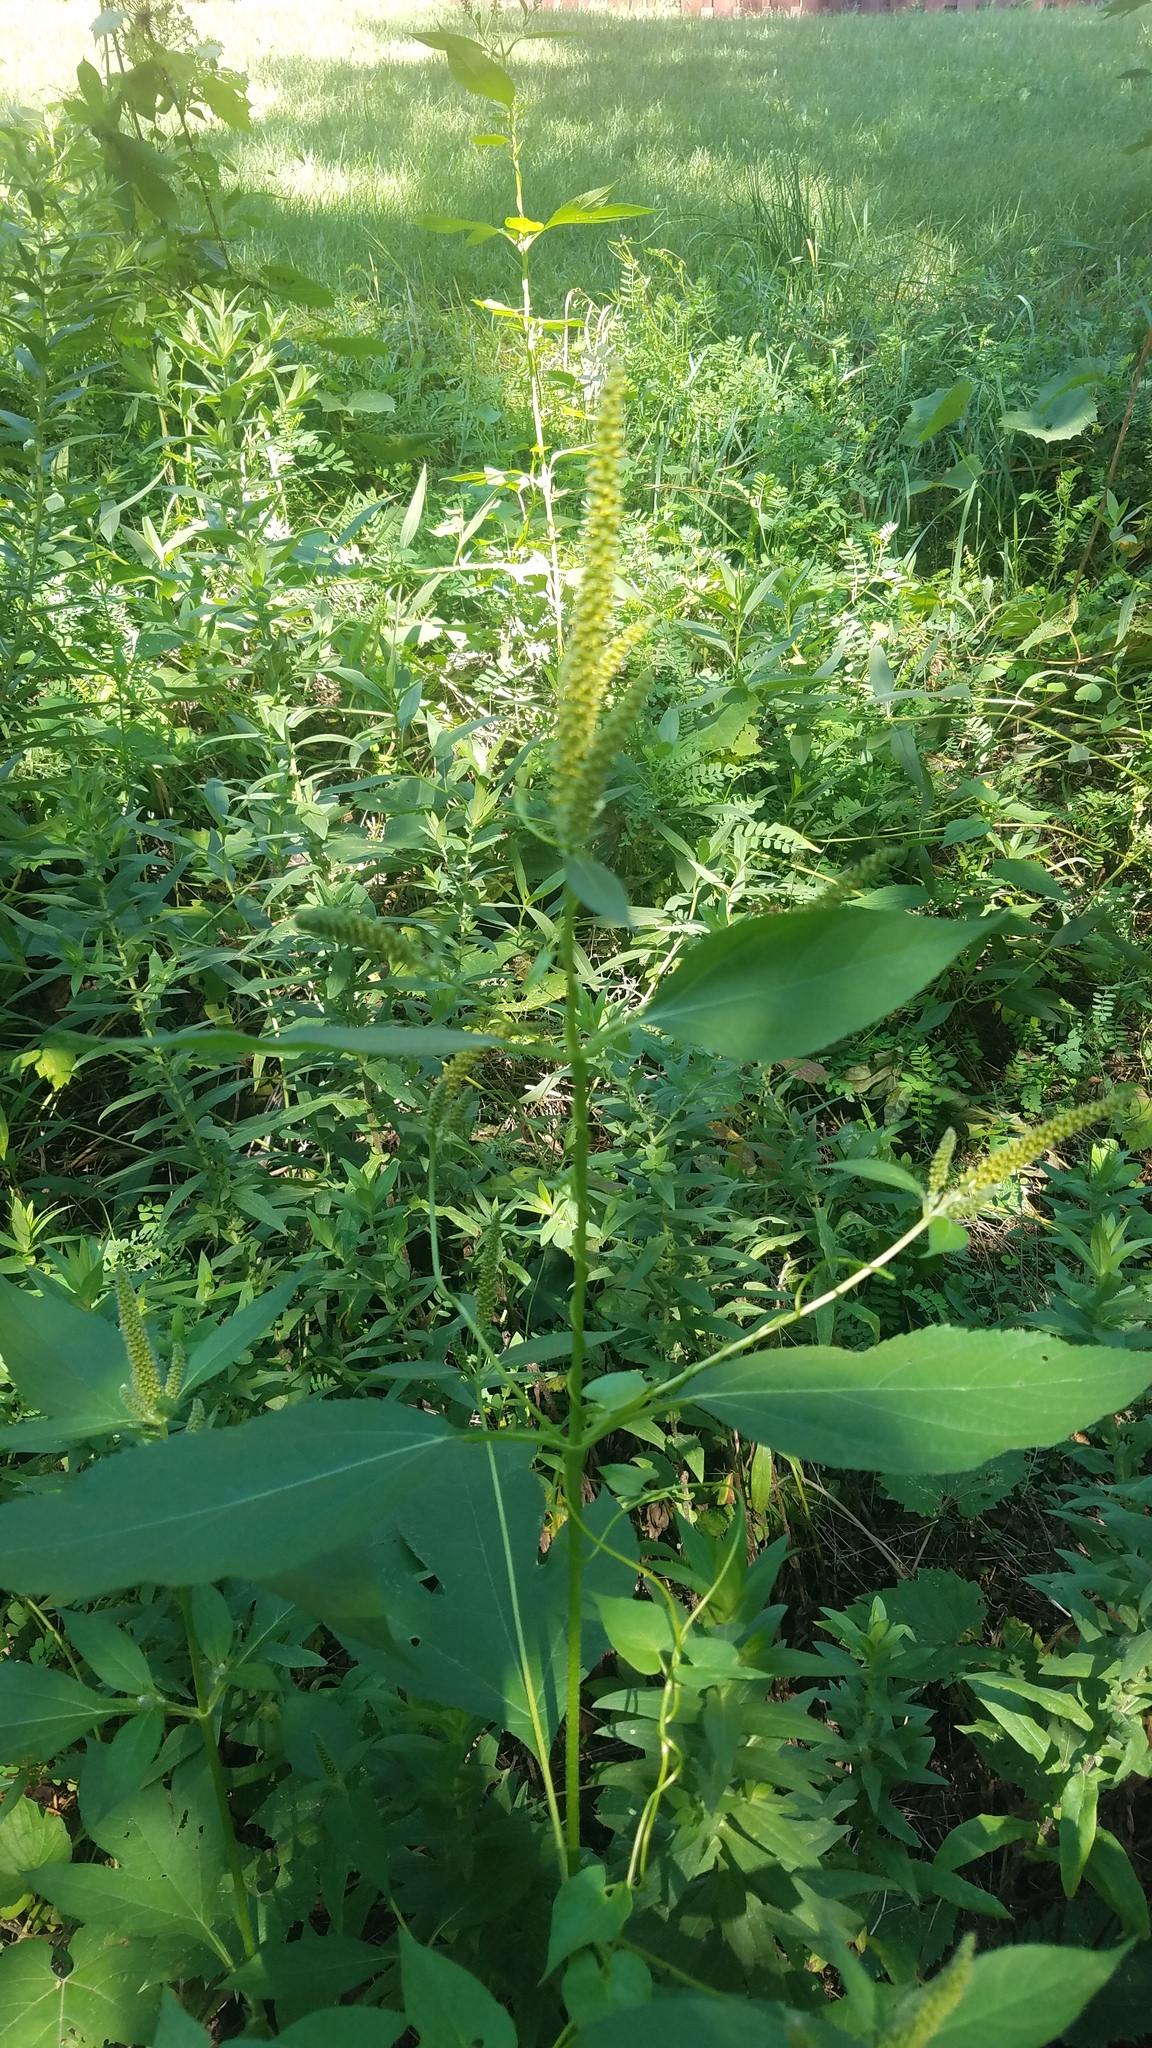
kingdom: Plantae
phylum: Tracheophyta
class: Magnoliopsida
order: Asterales
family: Asteraceae
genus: Ambrosia
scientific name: Ambrosia trifida
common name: Giant ragweed
